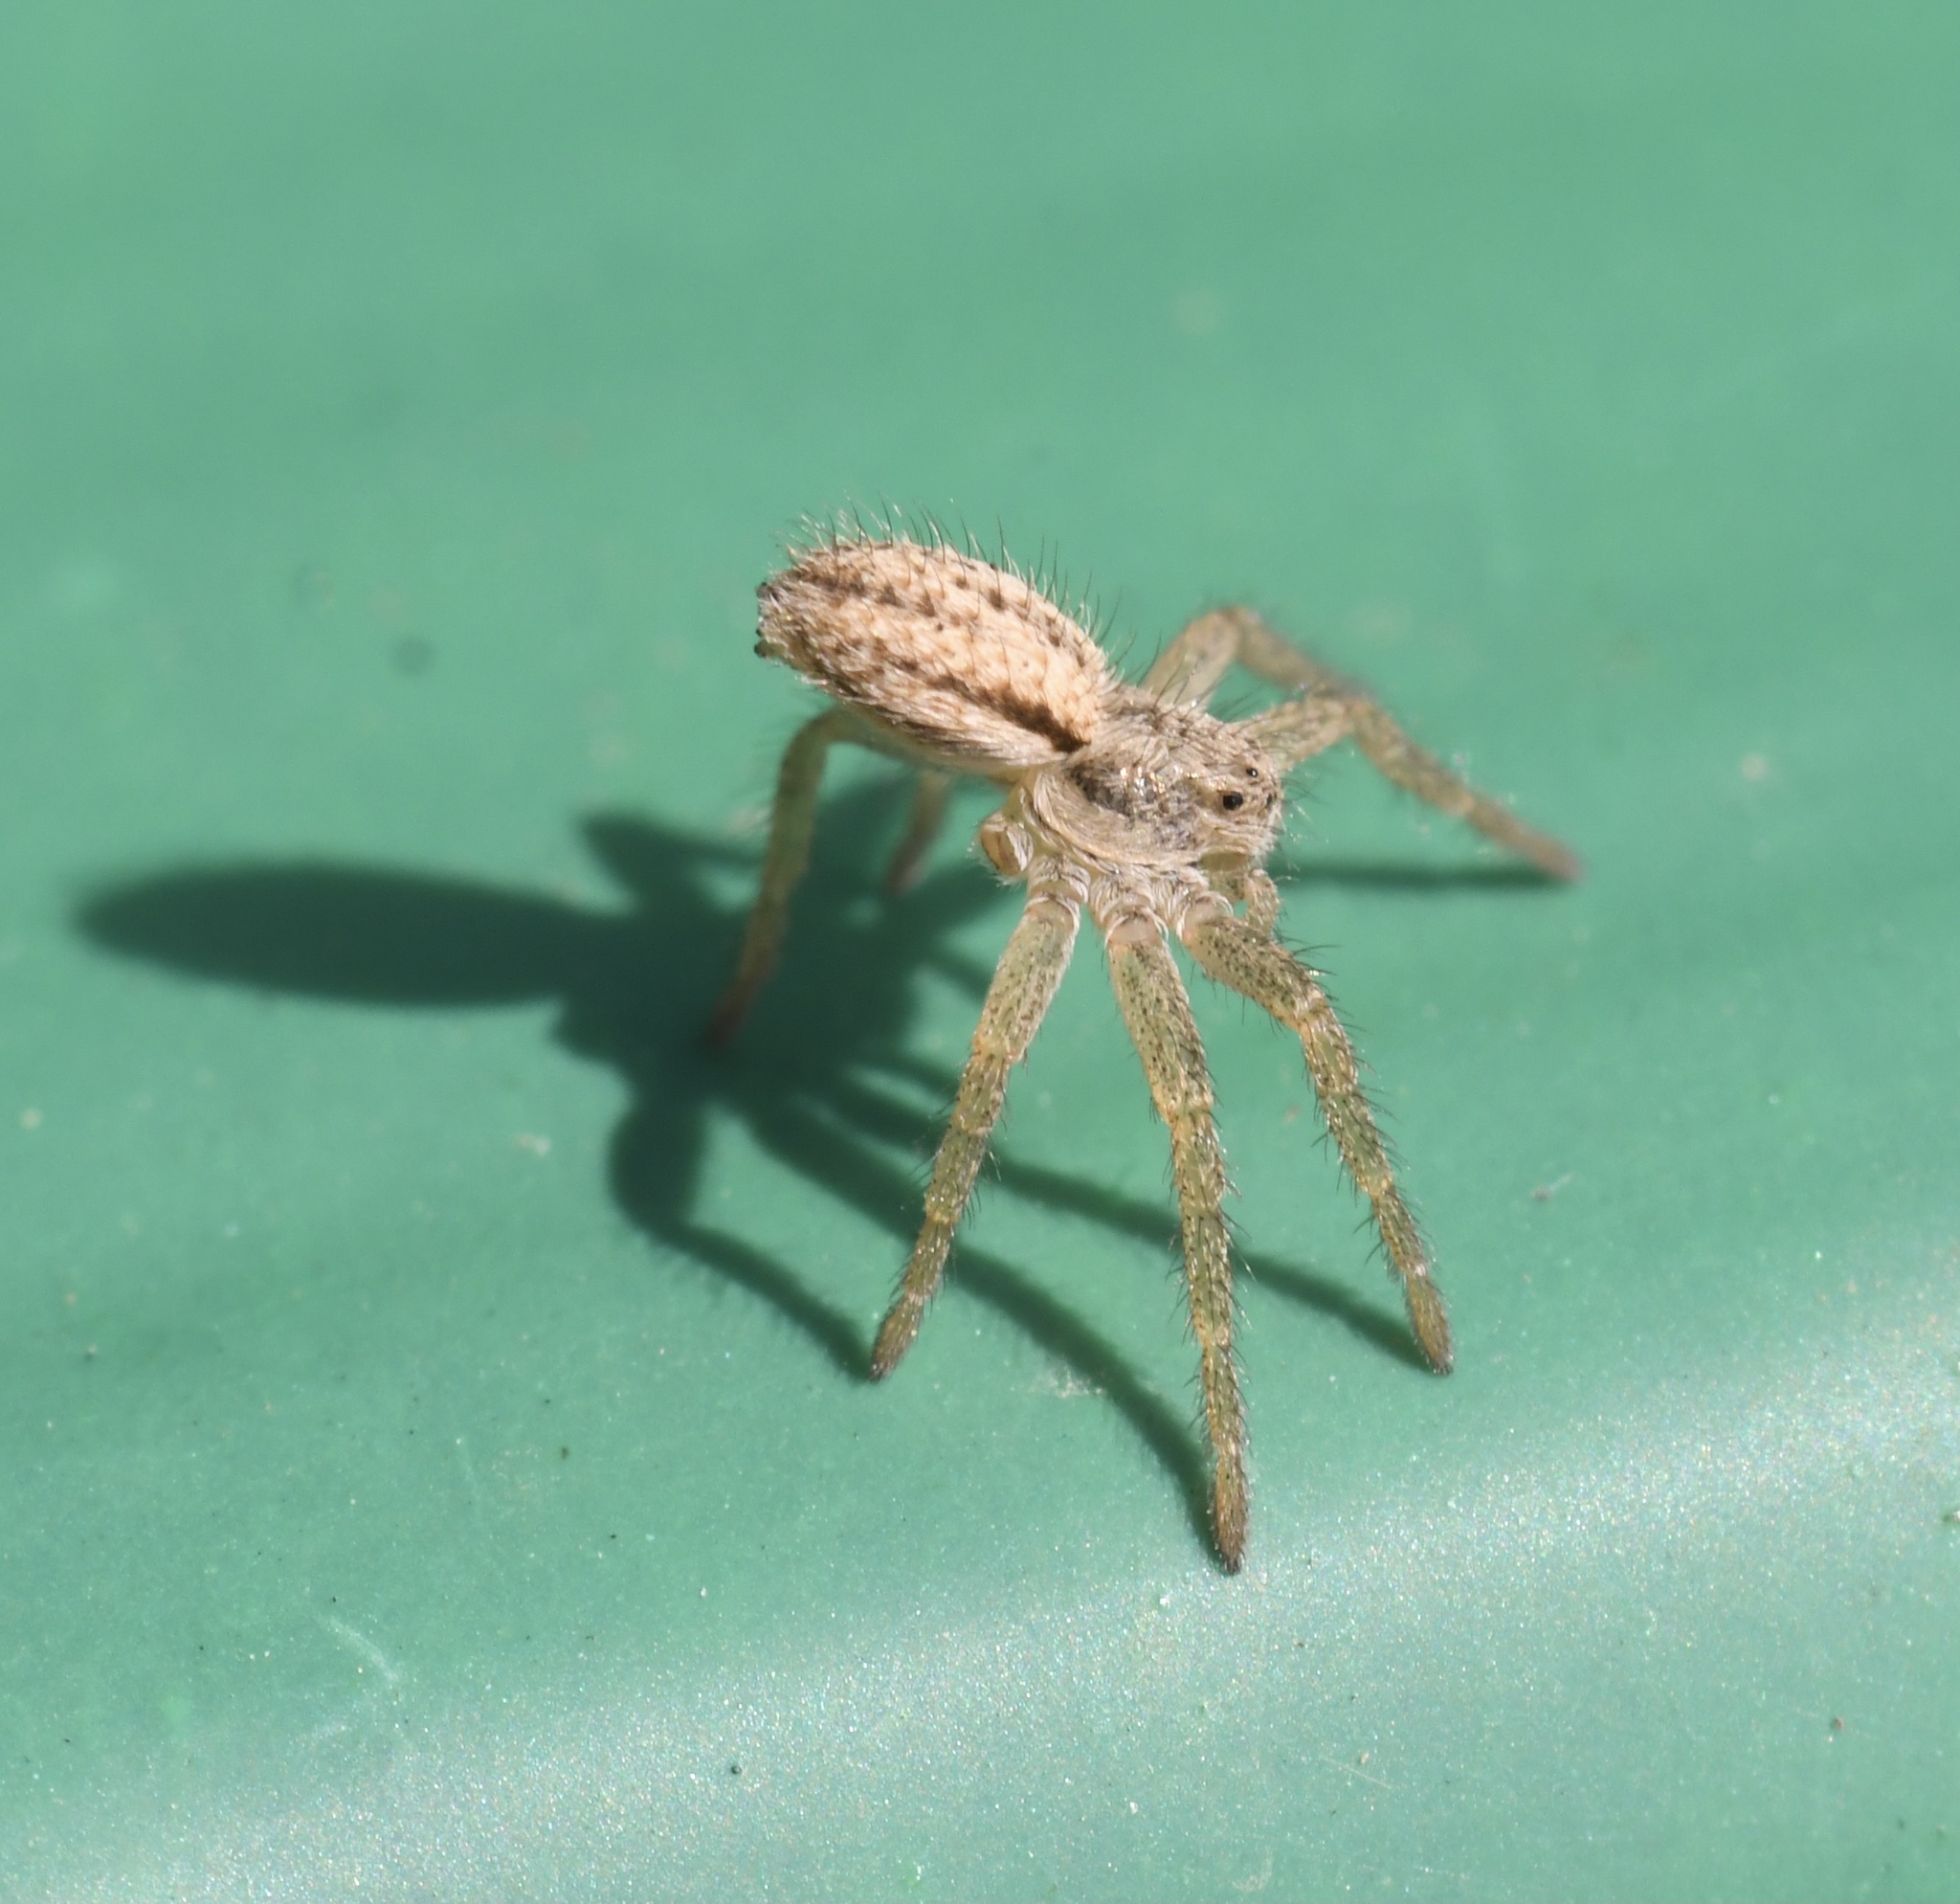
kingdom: Animalia
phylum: Arthropoda
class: Arachnida
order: Araneae
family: Philodromidae
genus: Thanatus
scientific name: Thanatus striatus
